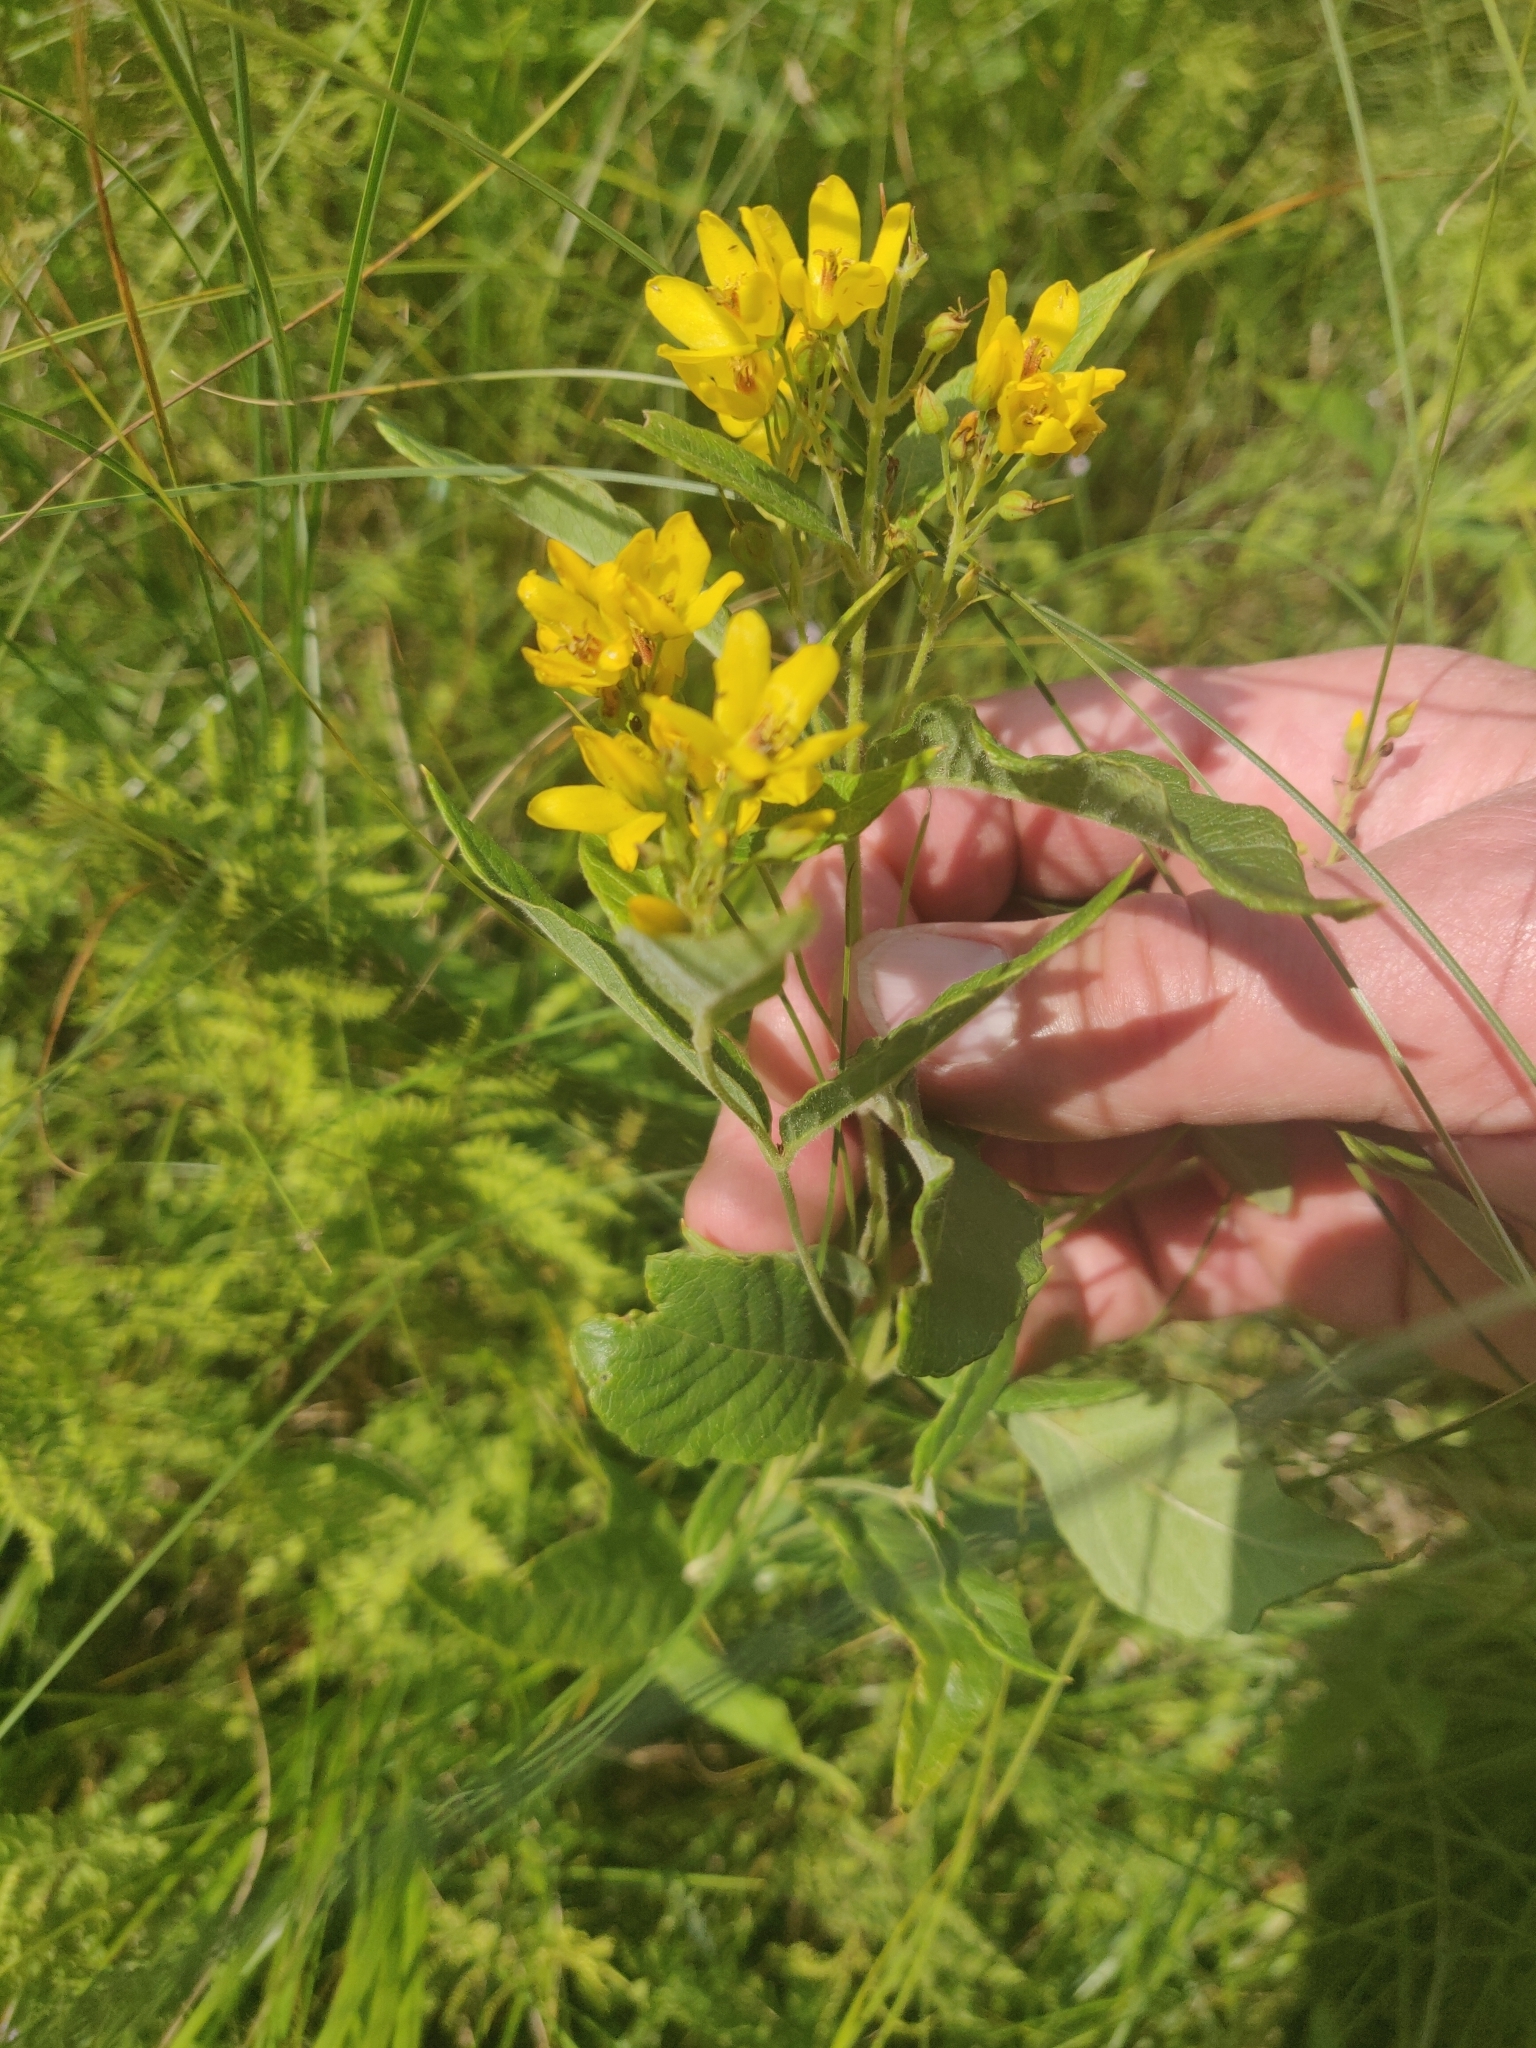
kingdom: Plantae
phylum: Tracheophyta
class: Magnoliopsida
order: Ericales
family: Primulaceae
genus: Lysimachia
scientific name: Lysimachia vulgaris
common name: Yellow loosestrife
